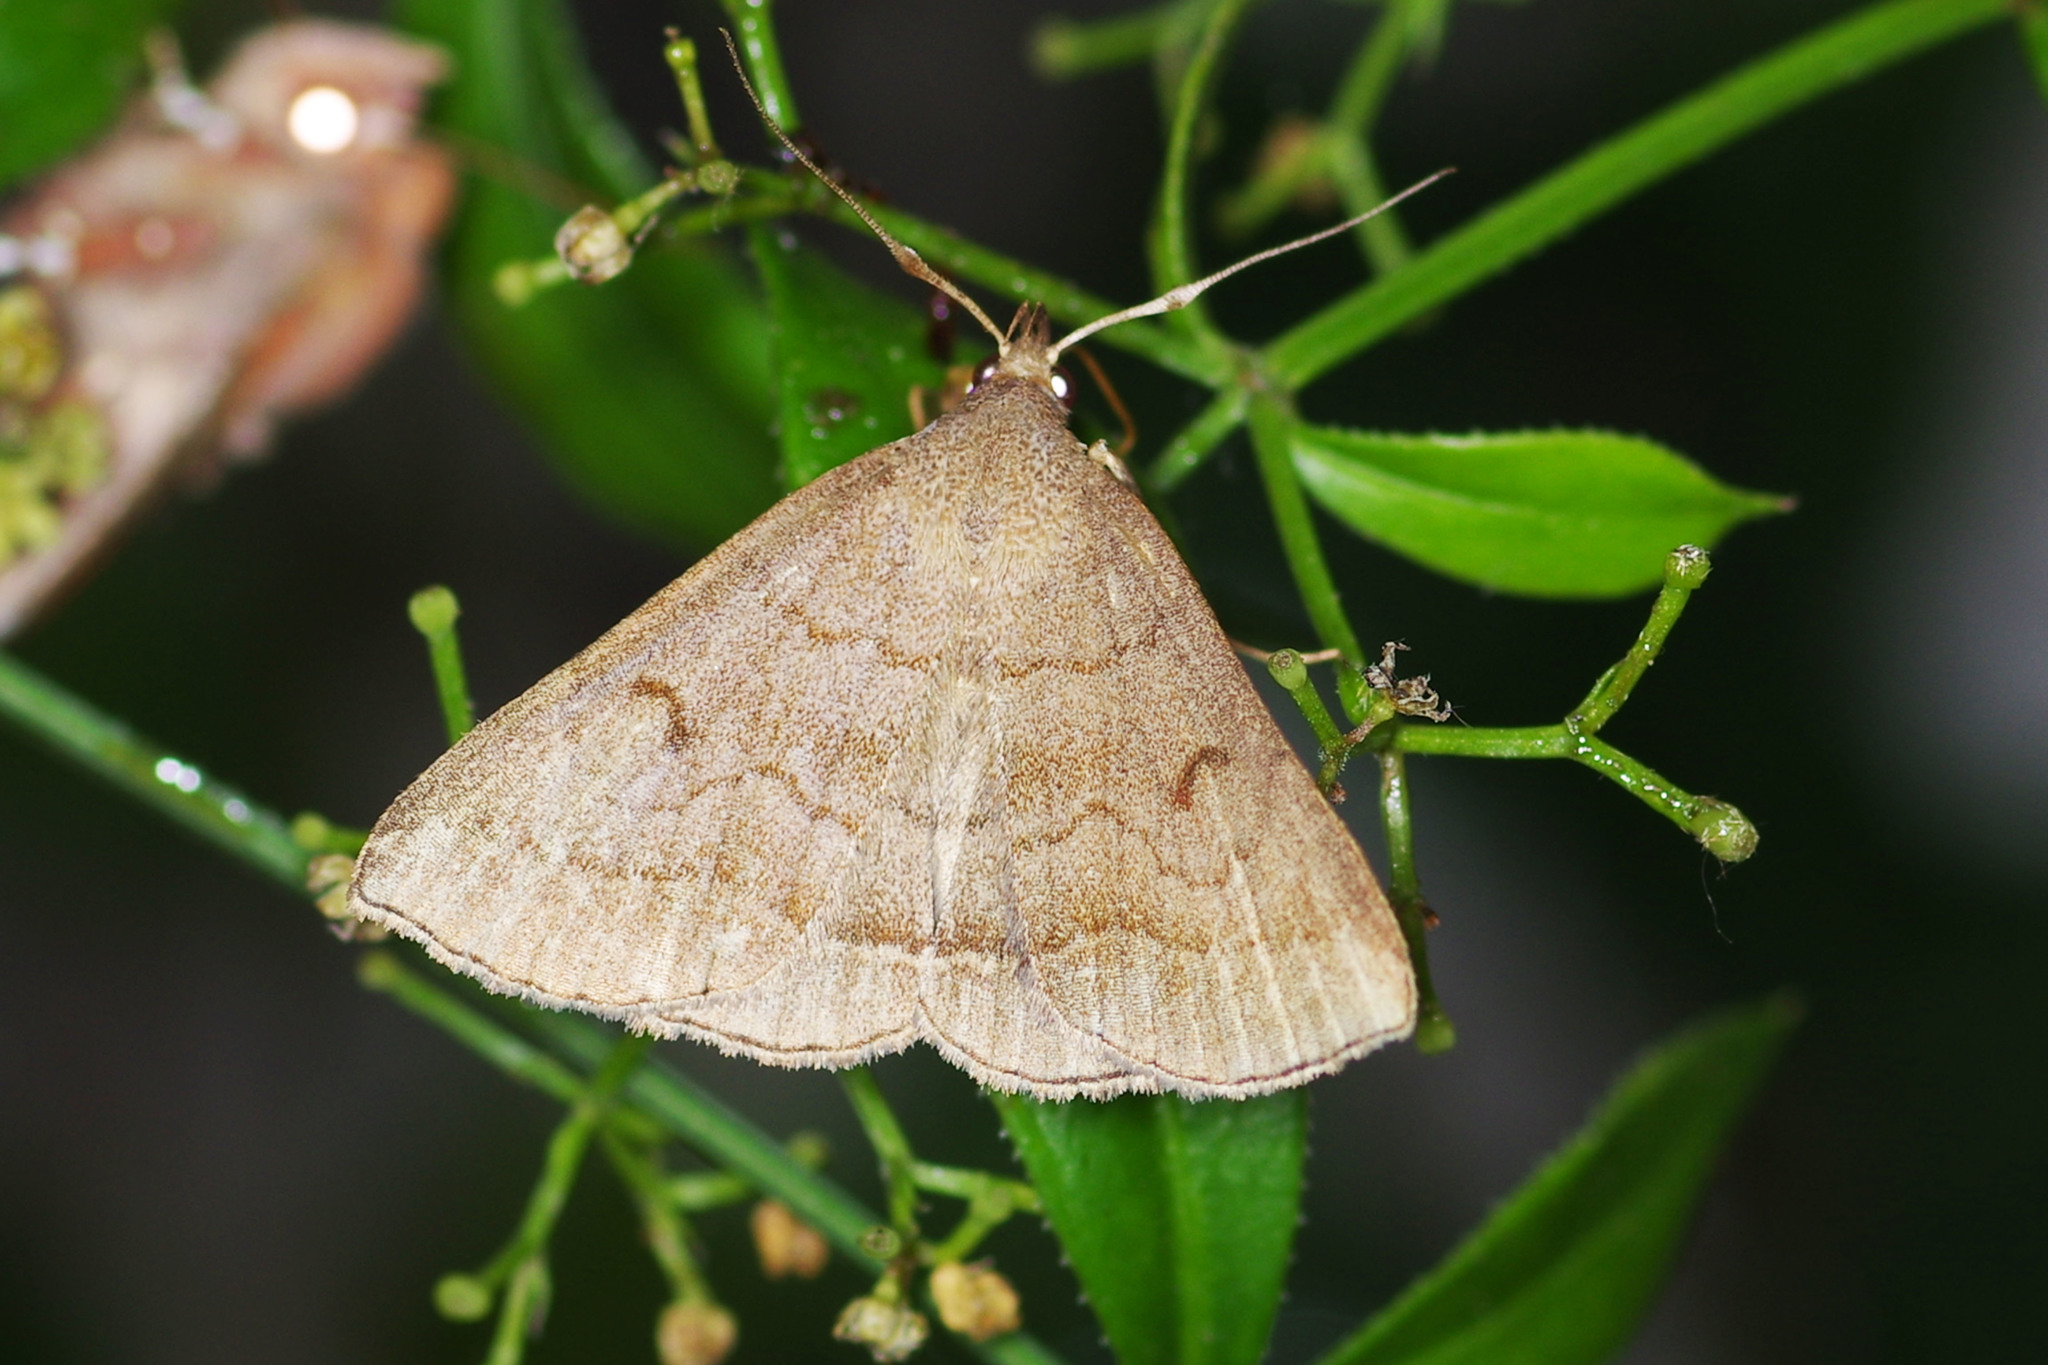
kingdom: Animalia
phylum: Arthropoda
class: Insecta
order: Lepidoptera
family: Erebidae
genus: Zanclognatha
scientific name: Zanclognatha lunalis
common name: Jubilee fan-foot
